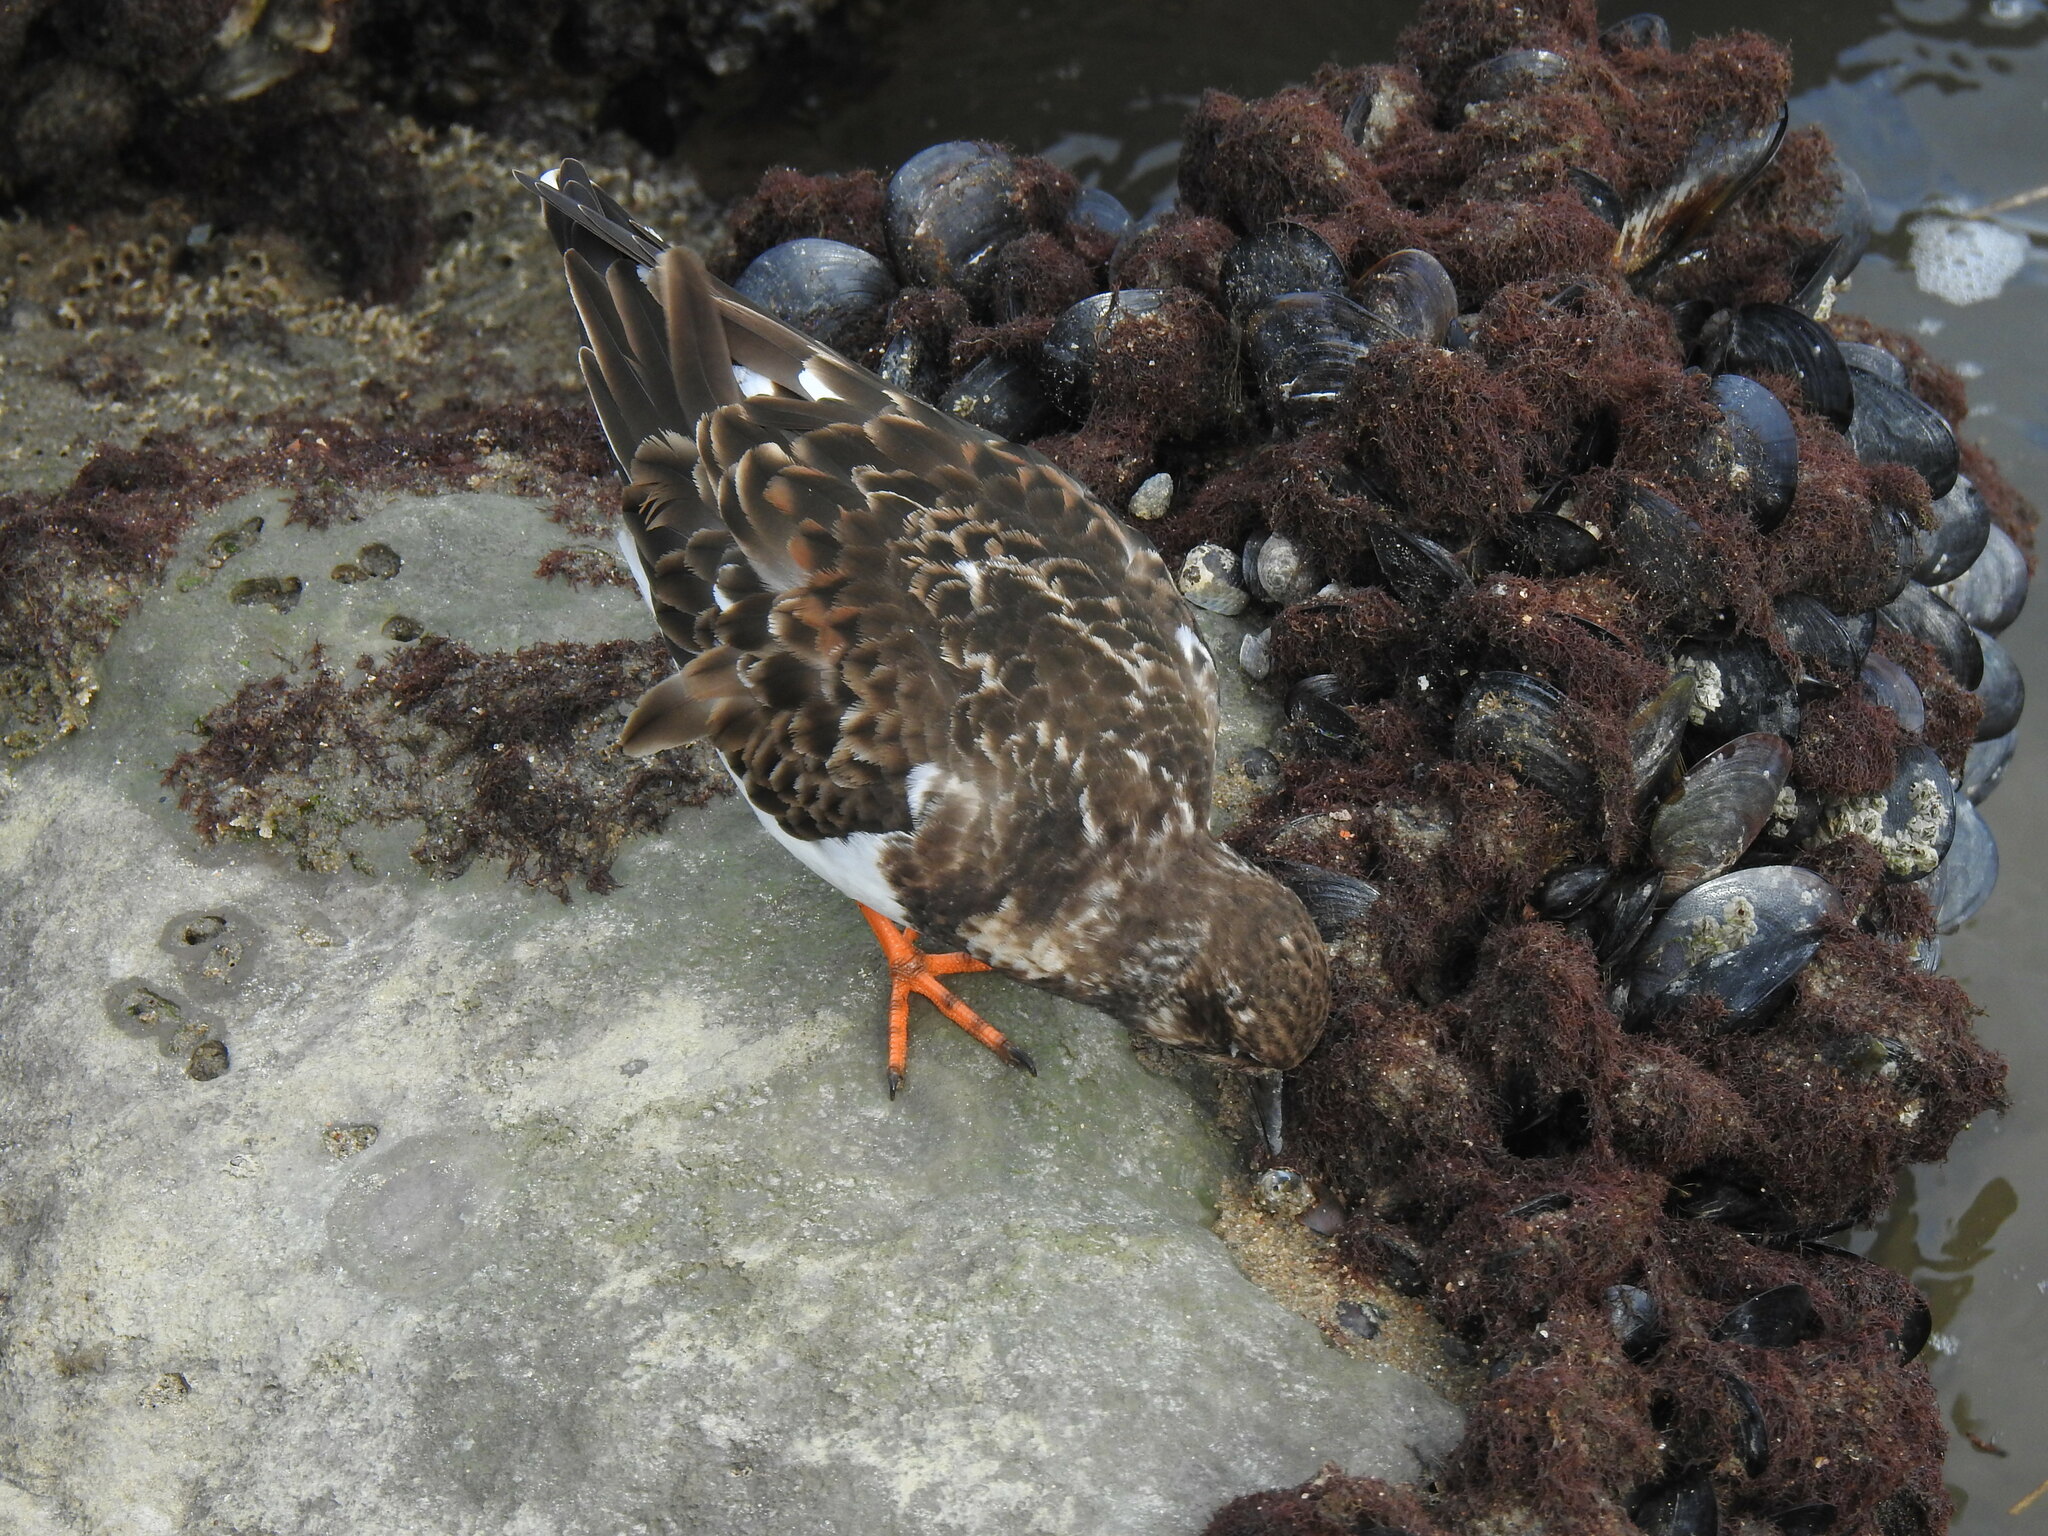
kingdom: Animalia
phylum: Chordata
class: Aves
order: Charadriiformes
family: Scolopacidae
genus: Arenaria
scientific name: Arenaria interpres
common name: Ruddy turnstone
